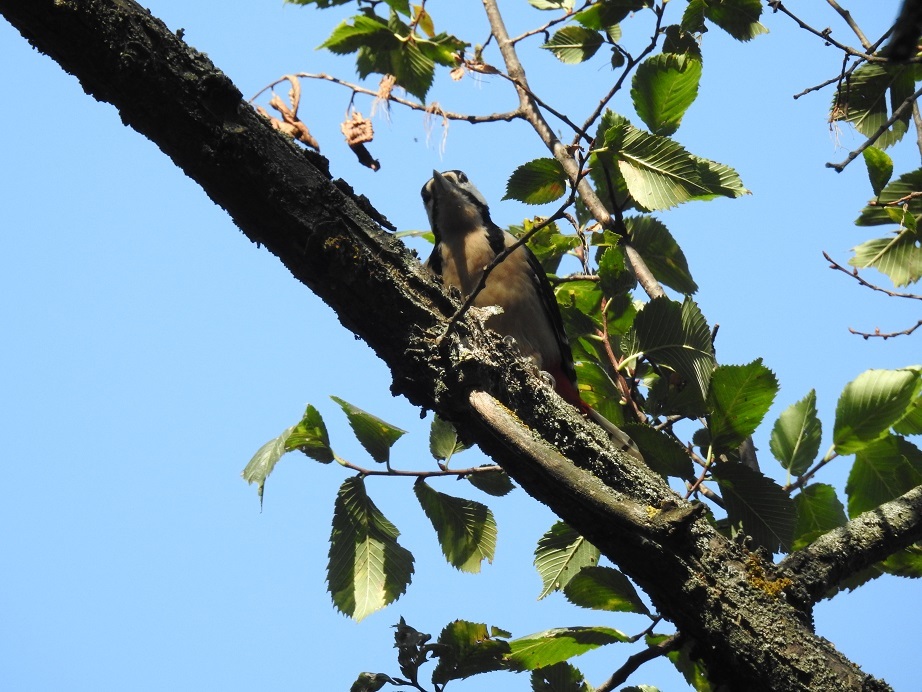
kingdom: Animalia
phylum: Chordata
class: Aves
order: Piciformes
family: Picidae
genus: Dendrocopos
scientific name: Dendrocopos major
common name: Great spotted woodpecker
